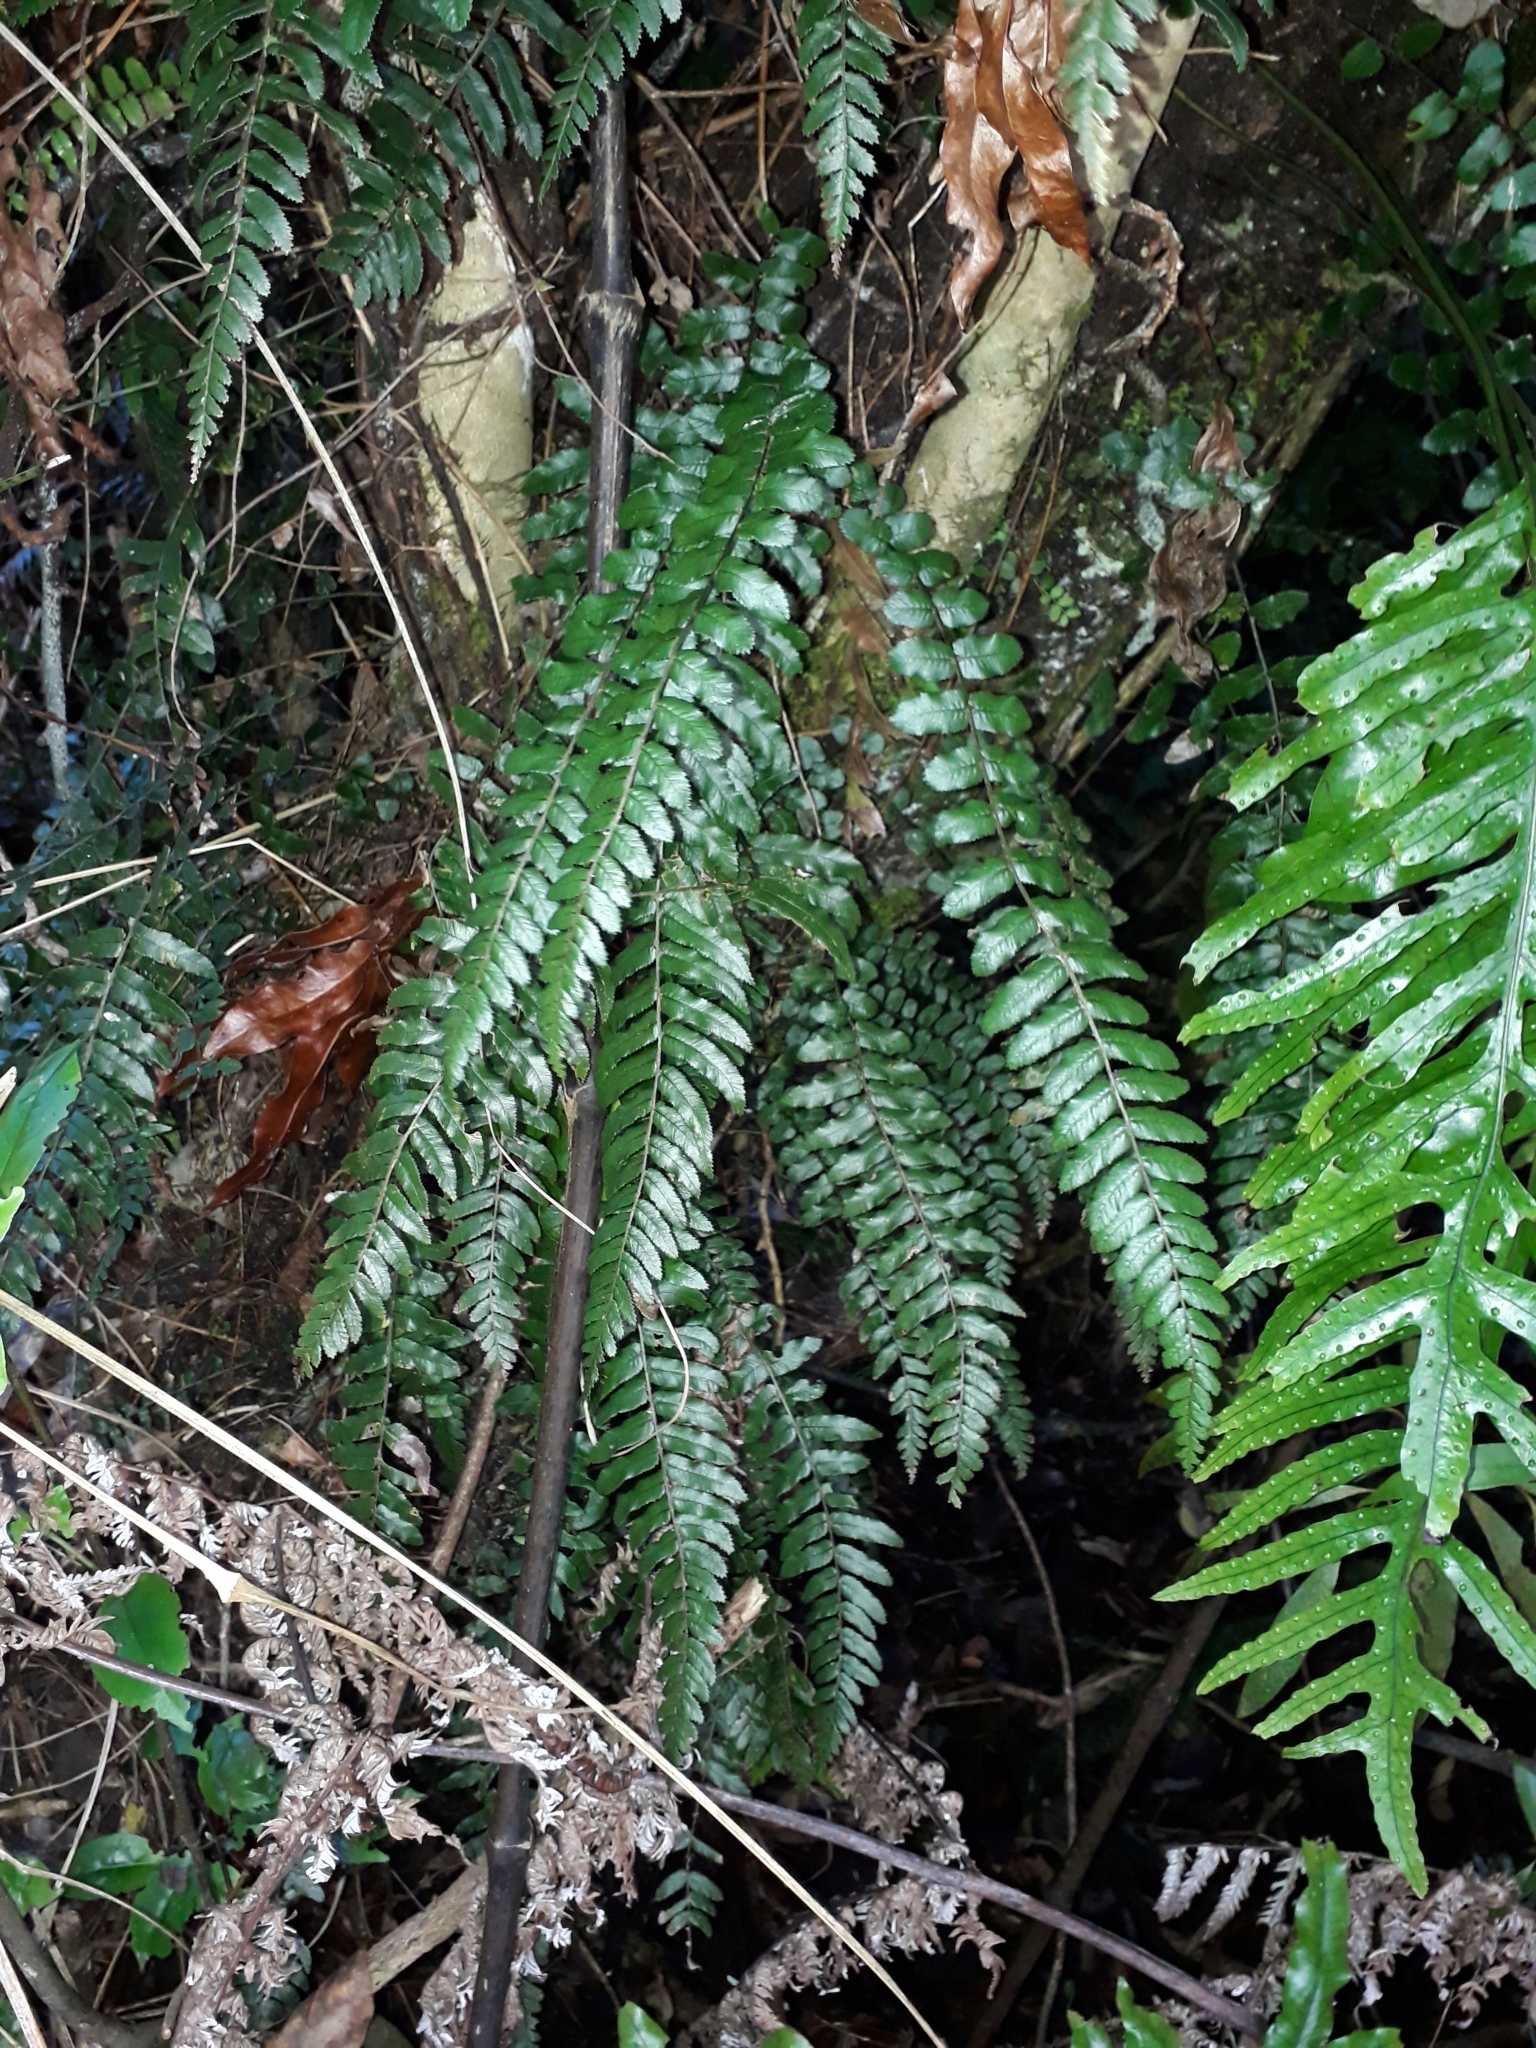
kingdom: Plantae
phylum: Tracheophyta
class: Polypodiopsida
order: Polypodiales
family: Blechnaceae
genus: Icarus
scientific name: Icarus filiformis
